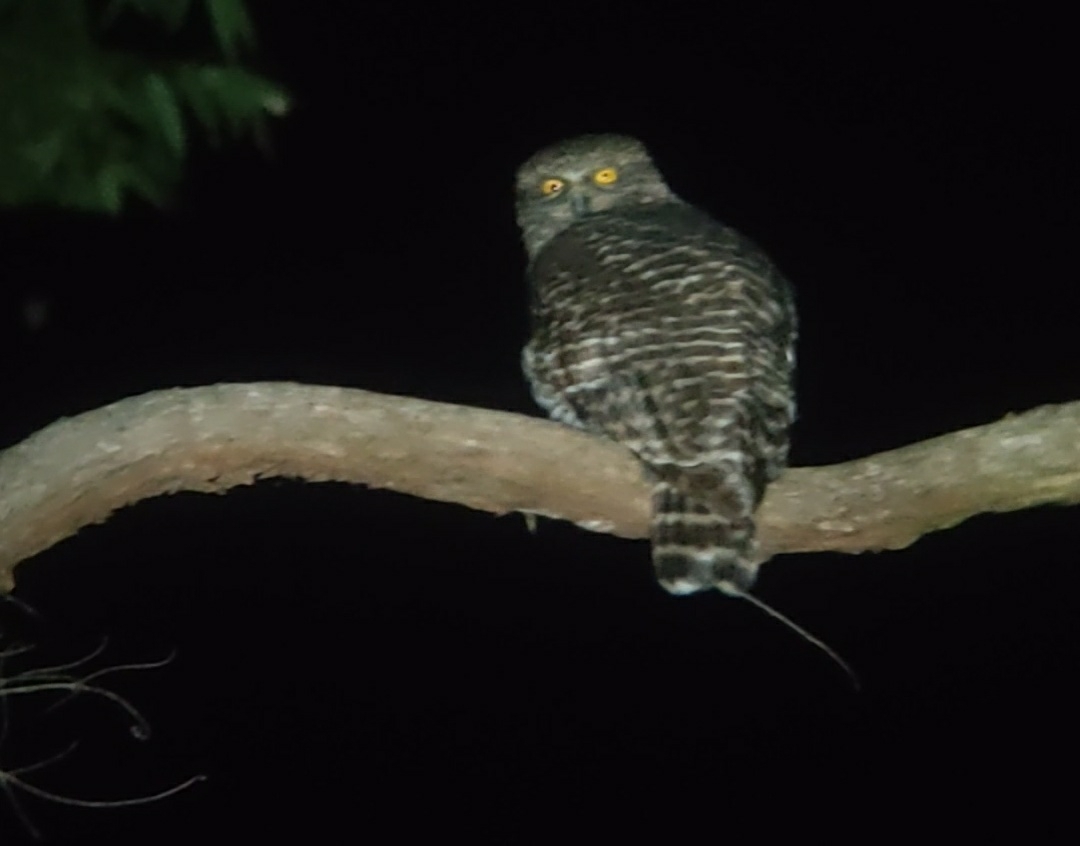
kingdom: Animalia
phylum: Chordata
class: Aves
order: Strigiformes
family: Strigidae
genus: Ninox
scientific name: Ninox strenua
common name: Powerful owl
